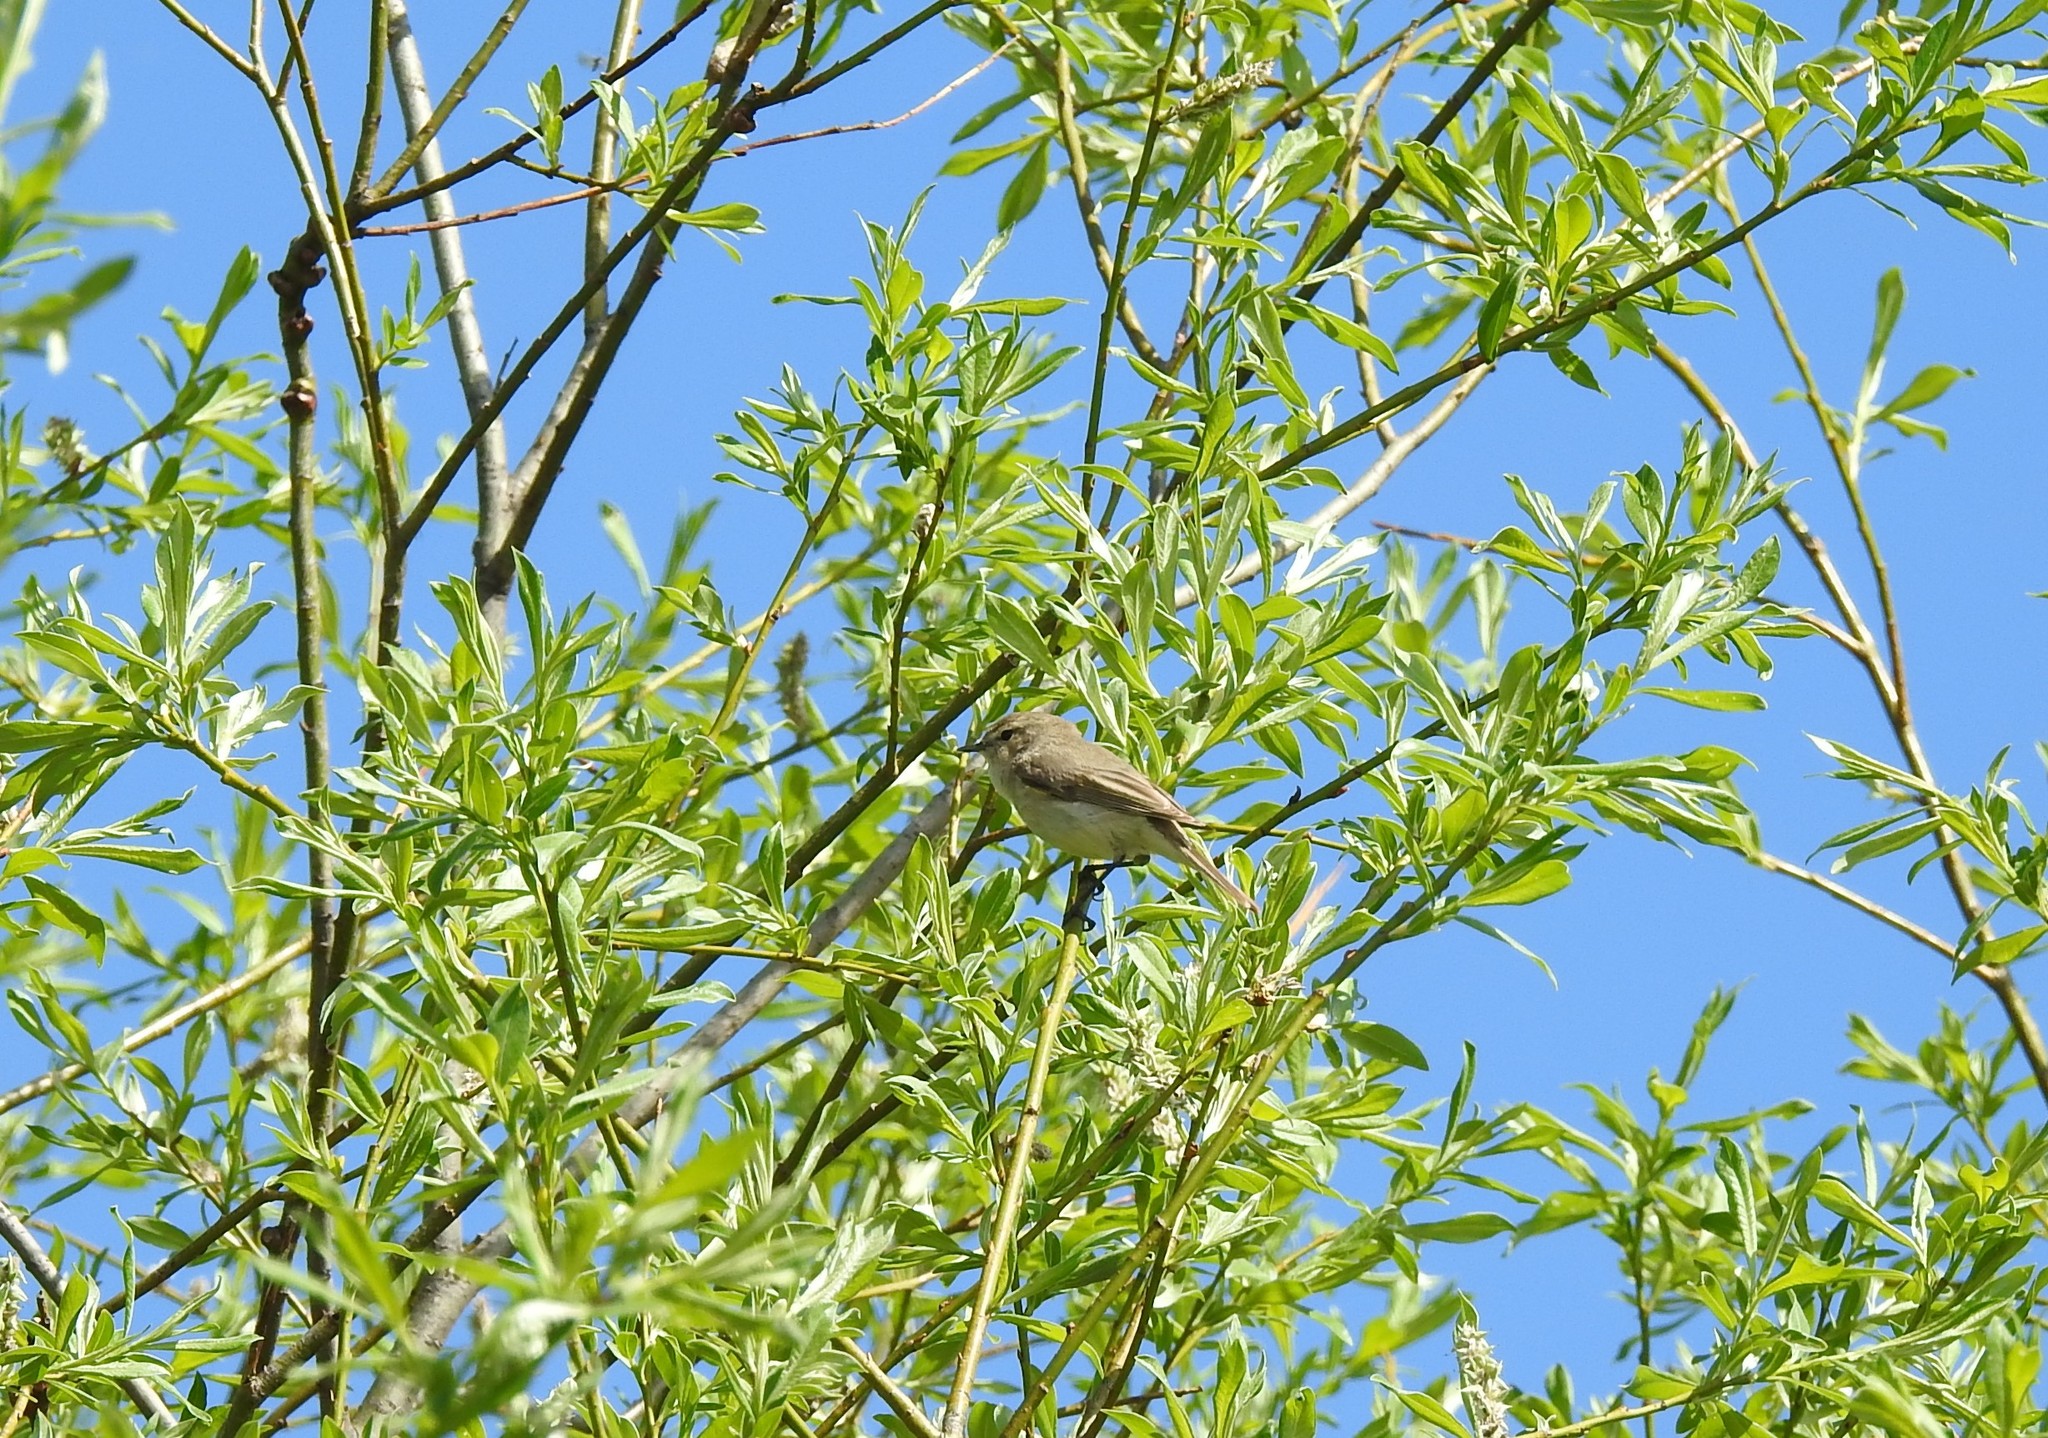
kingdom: Animalia
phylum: Chordata
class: Aves
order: Passeriformes
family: Phylloscopidae
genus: Phylloscopus
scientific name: Phylloscopus collybita
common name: Common chiffchaff
